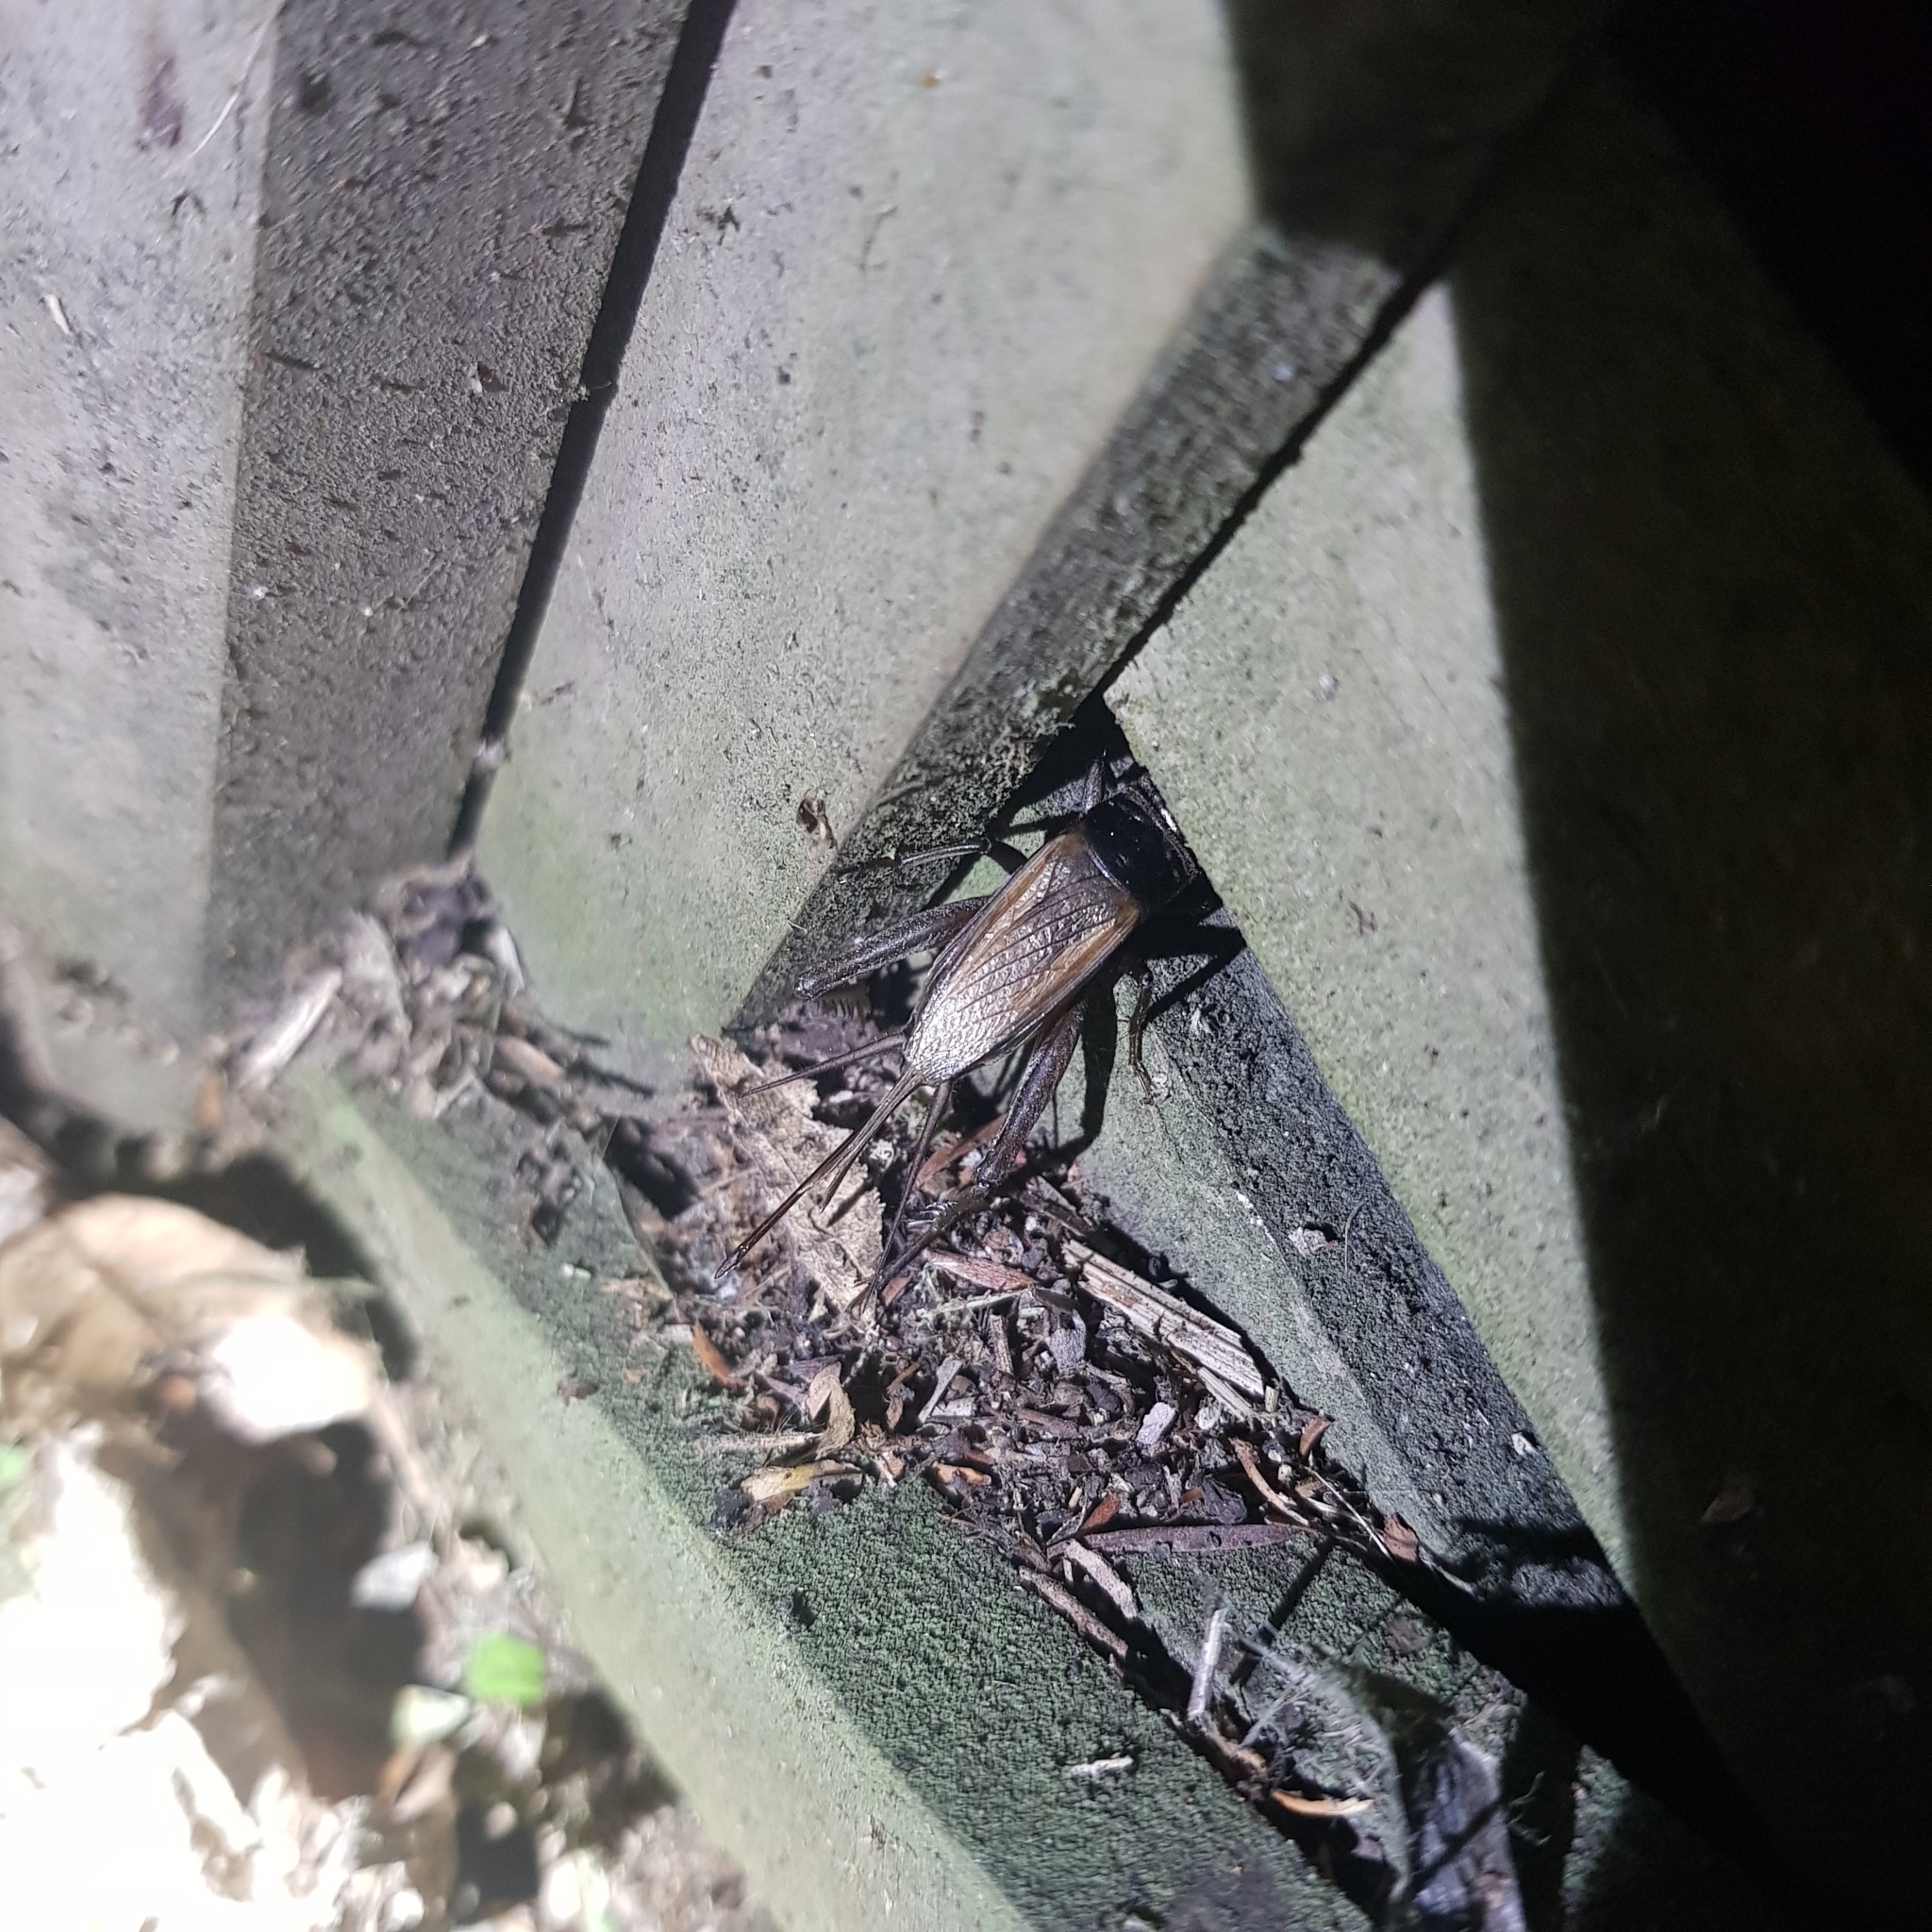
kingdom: Animalia
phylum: Arthropoda
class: Insecta
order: Orthoptera
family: Gryllidae
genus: Teleogryllus
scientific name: Teleogryllus commodus
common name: Black field cricket
